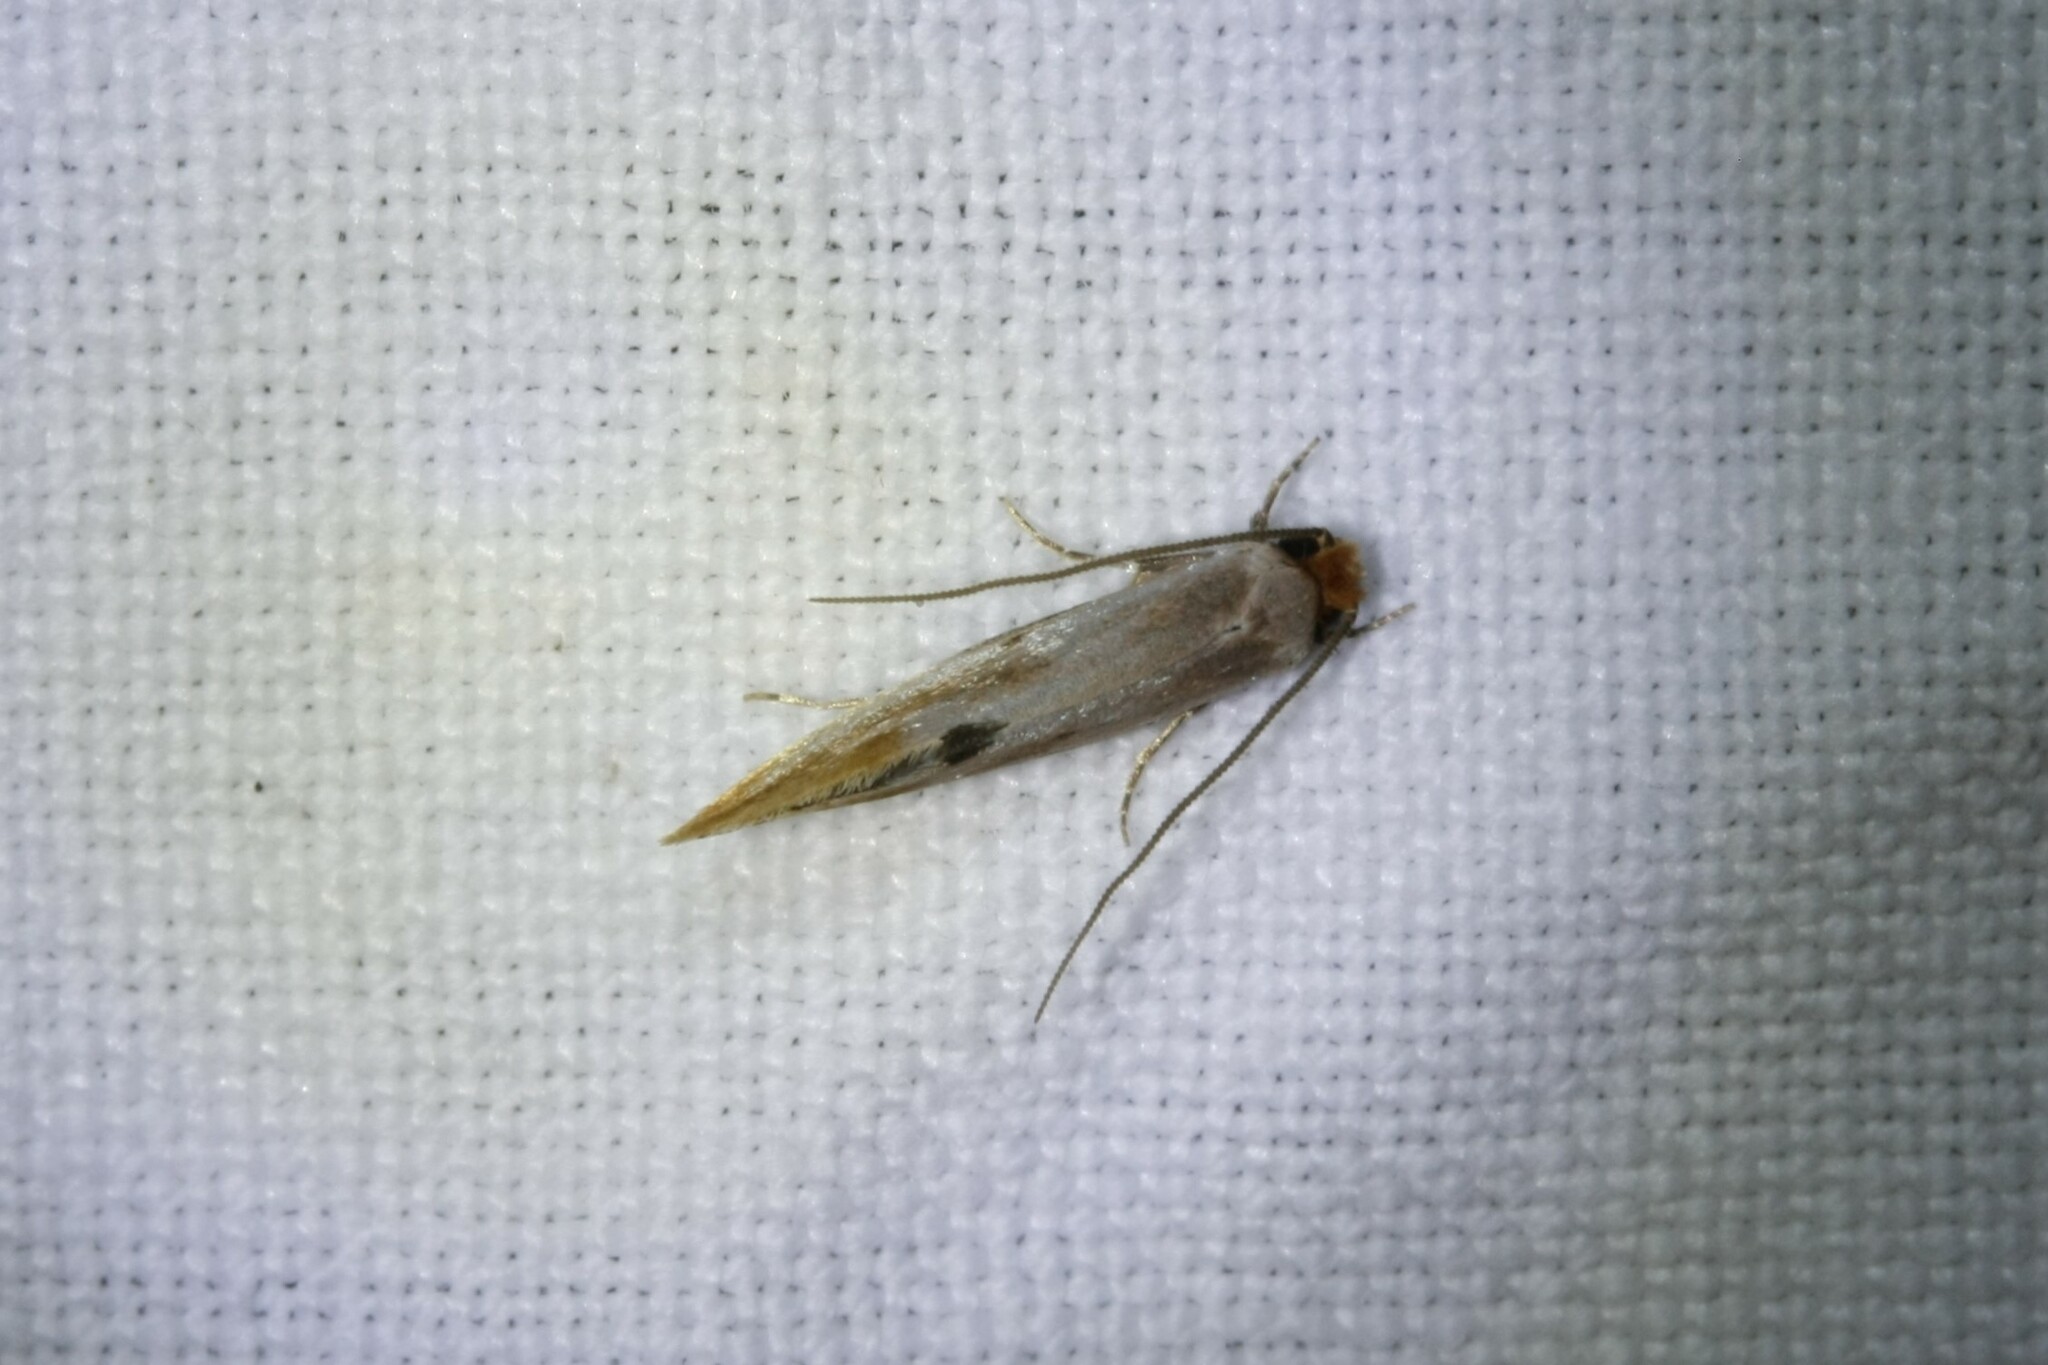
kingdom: Animalia
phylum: Arthropoda
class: Insecta
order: Lepidoptera
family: Tineidae
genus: Tinea
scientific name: Tinea semifulvella
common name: Fulvous clothes
